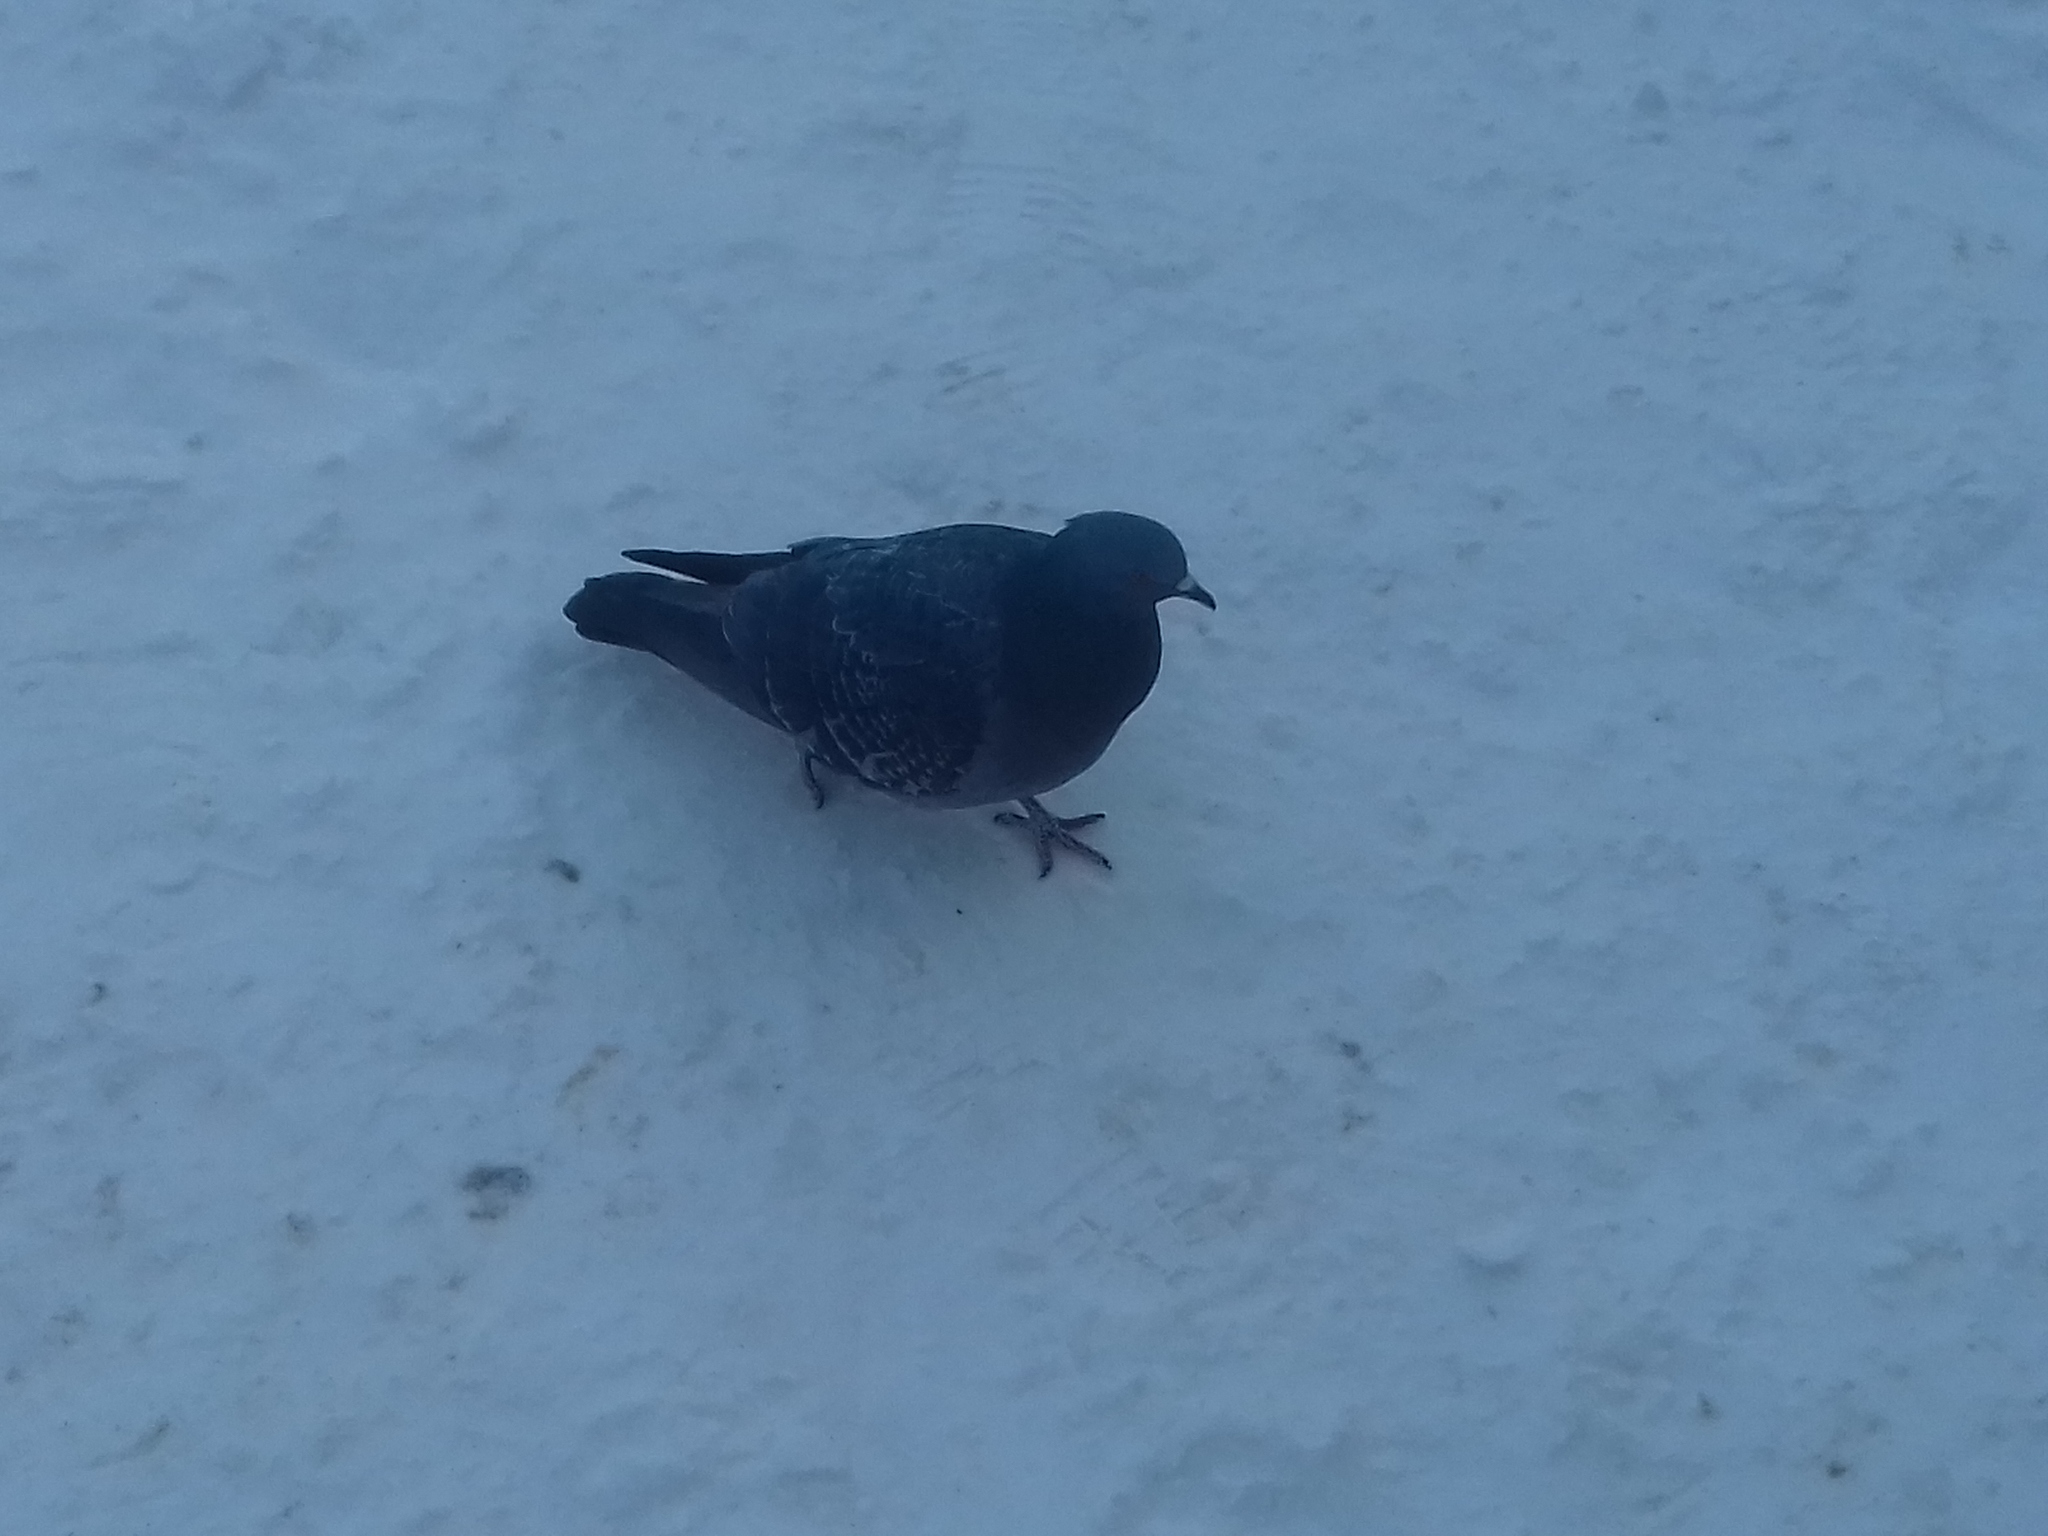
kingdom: Animalia
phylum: Chordata
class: Aves
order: Columbiformes
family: Columbidae
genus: Columba
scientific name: Columba livia
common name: Rock pigeon
